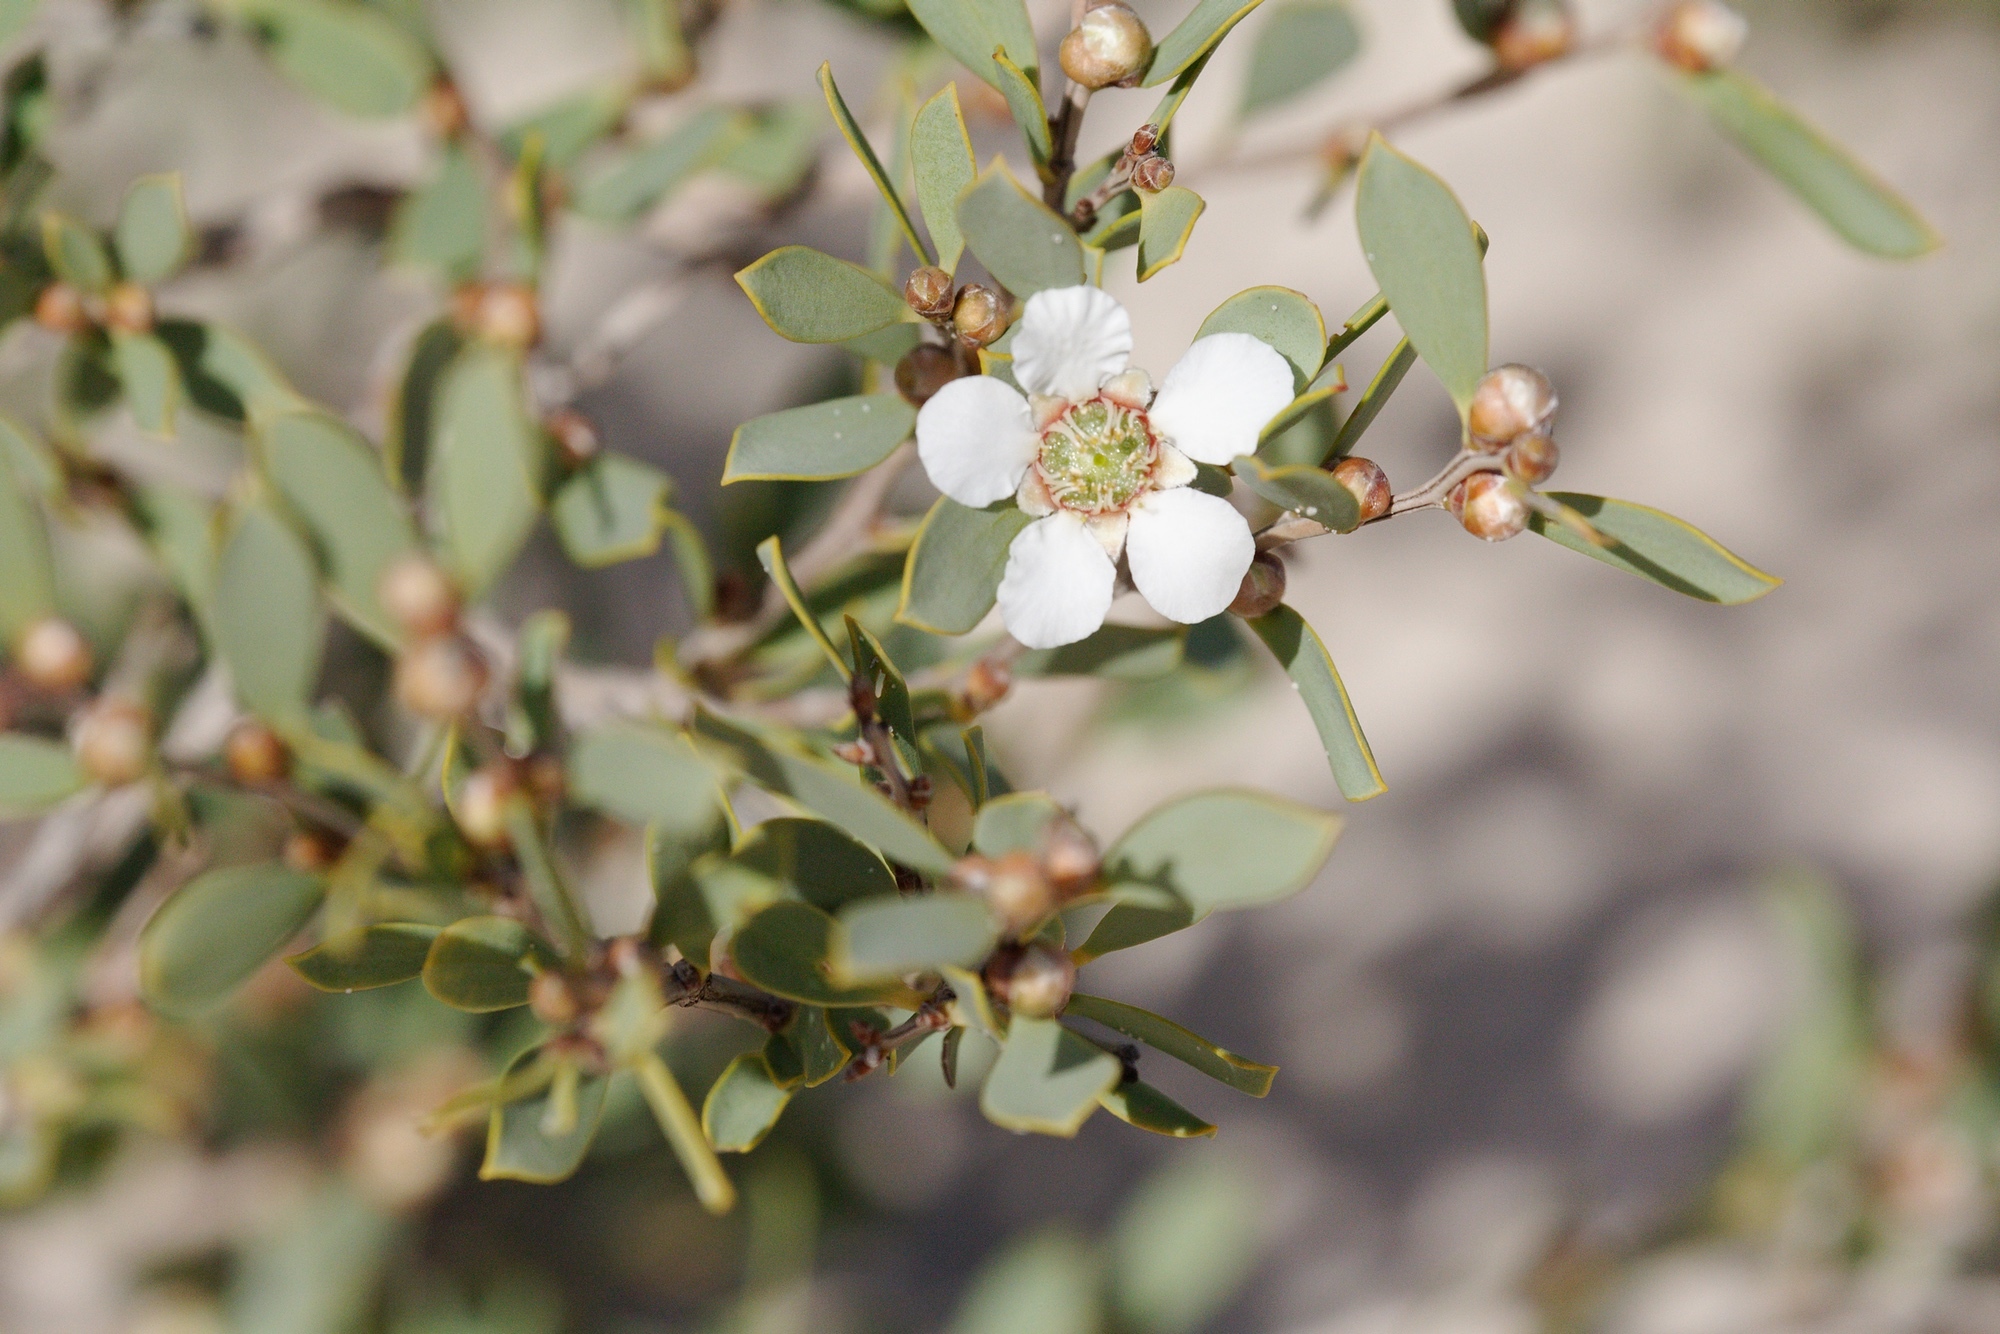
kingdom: Plantae
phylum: Tracheophyta
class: Magnoliopsida
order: Myrtales
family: Myrtaceae
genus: Leptospermum
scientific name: Leptospermum laevigatum
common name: Australian teatree
